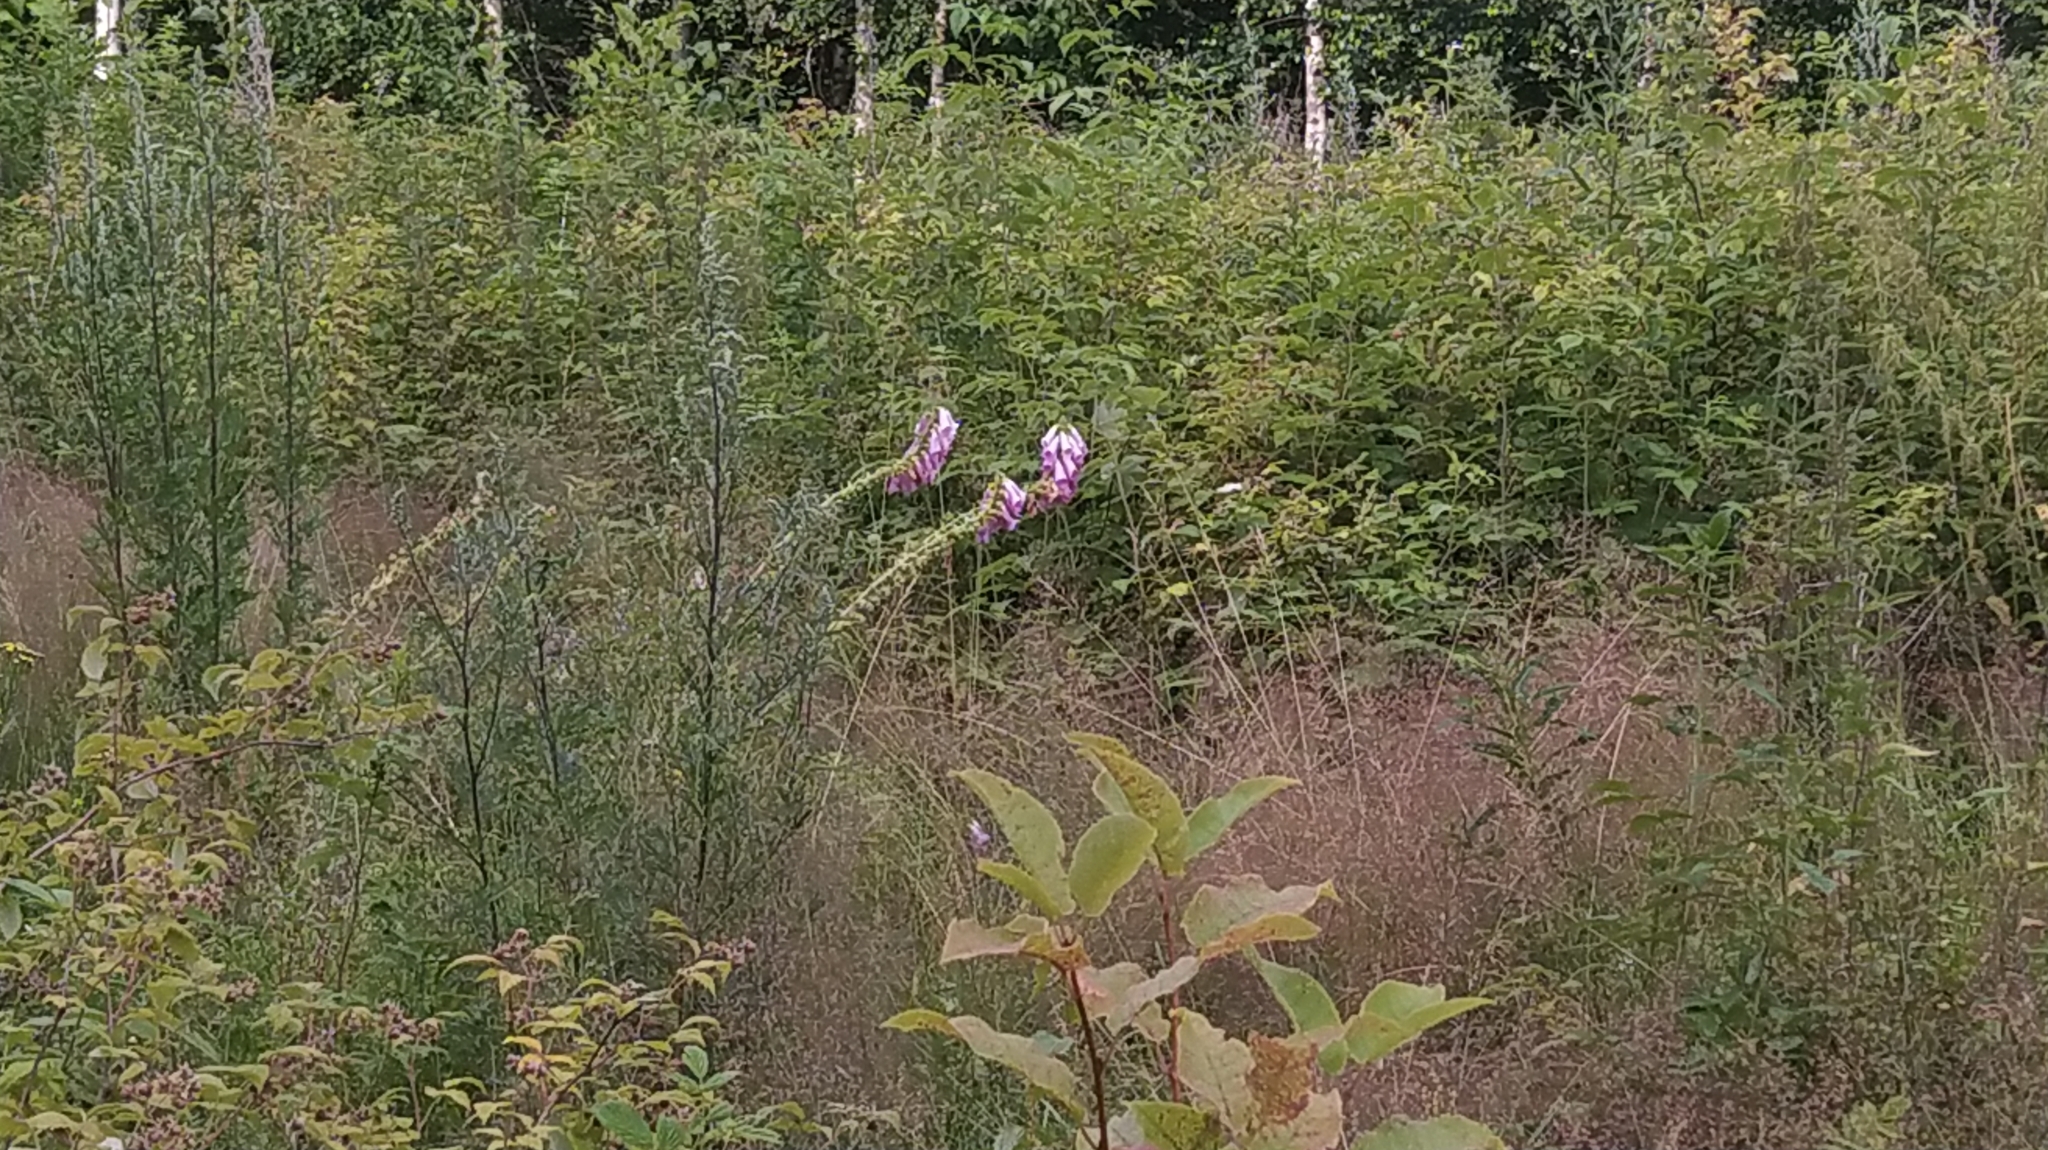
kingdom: Plantae
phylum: Tracheophyta
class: Magnoliopsida
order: Lamiales
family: Plantaginaceae
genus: Digitalis
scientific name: Digitalis purpurea
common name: Foxglove
